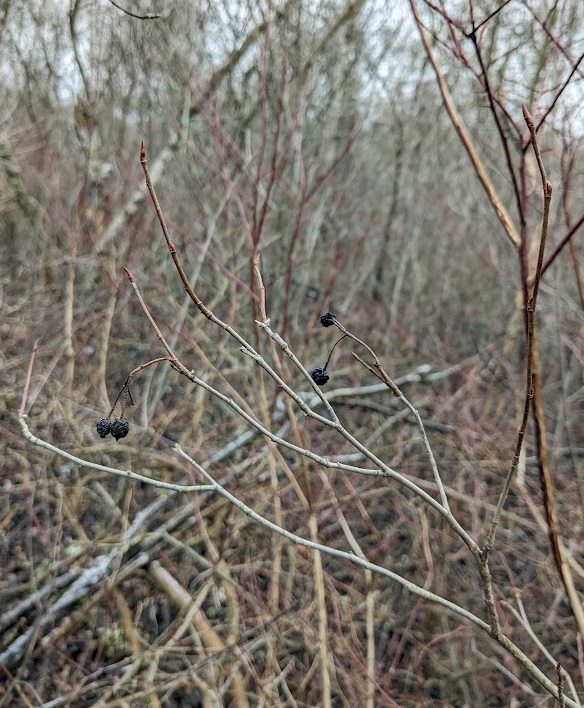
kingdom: Plantae
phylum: Tracheophyta
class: Magnoliopsida
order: Rosales
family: Rosaceae
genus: Aronia
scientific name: Aronia melanocarpa
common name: Black chokeberry
